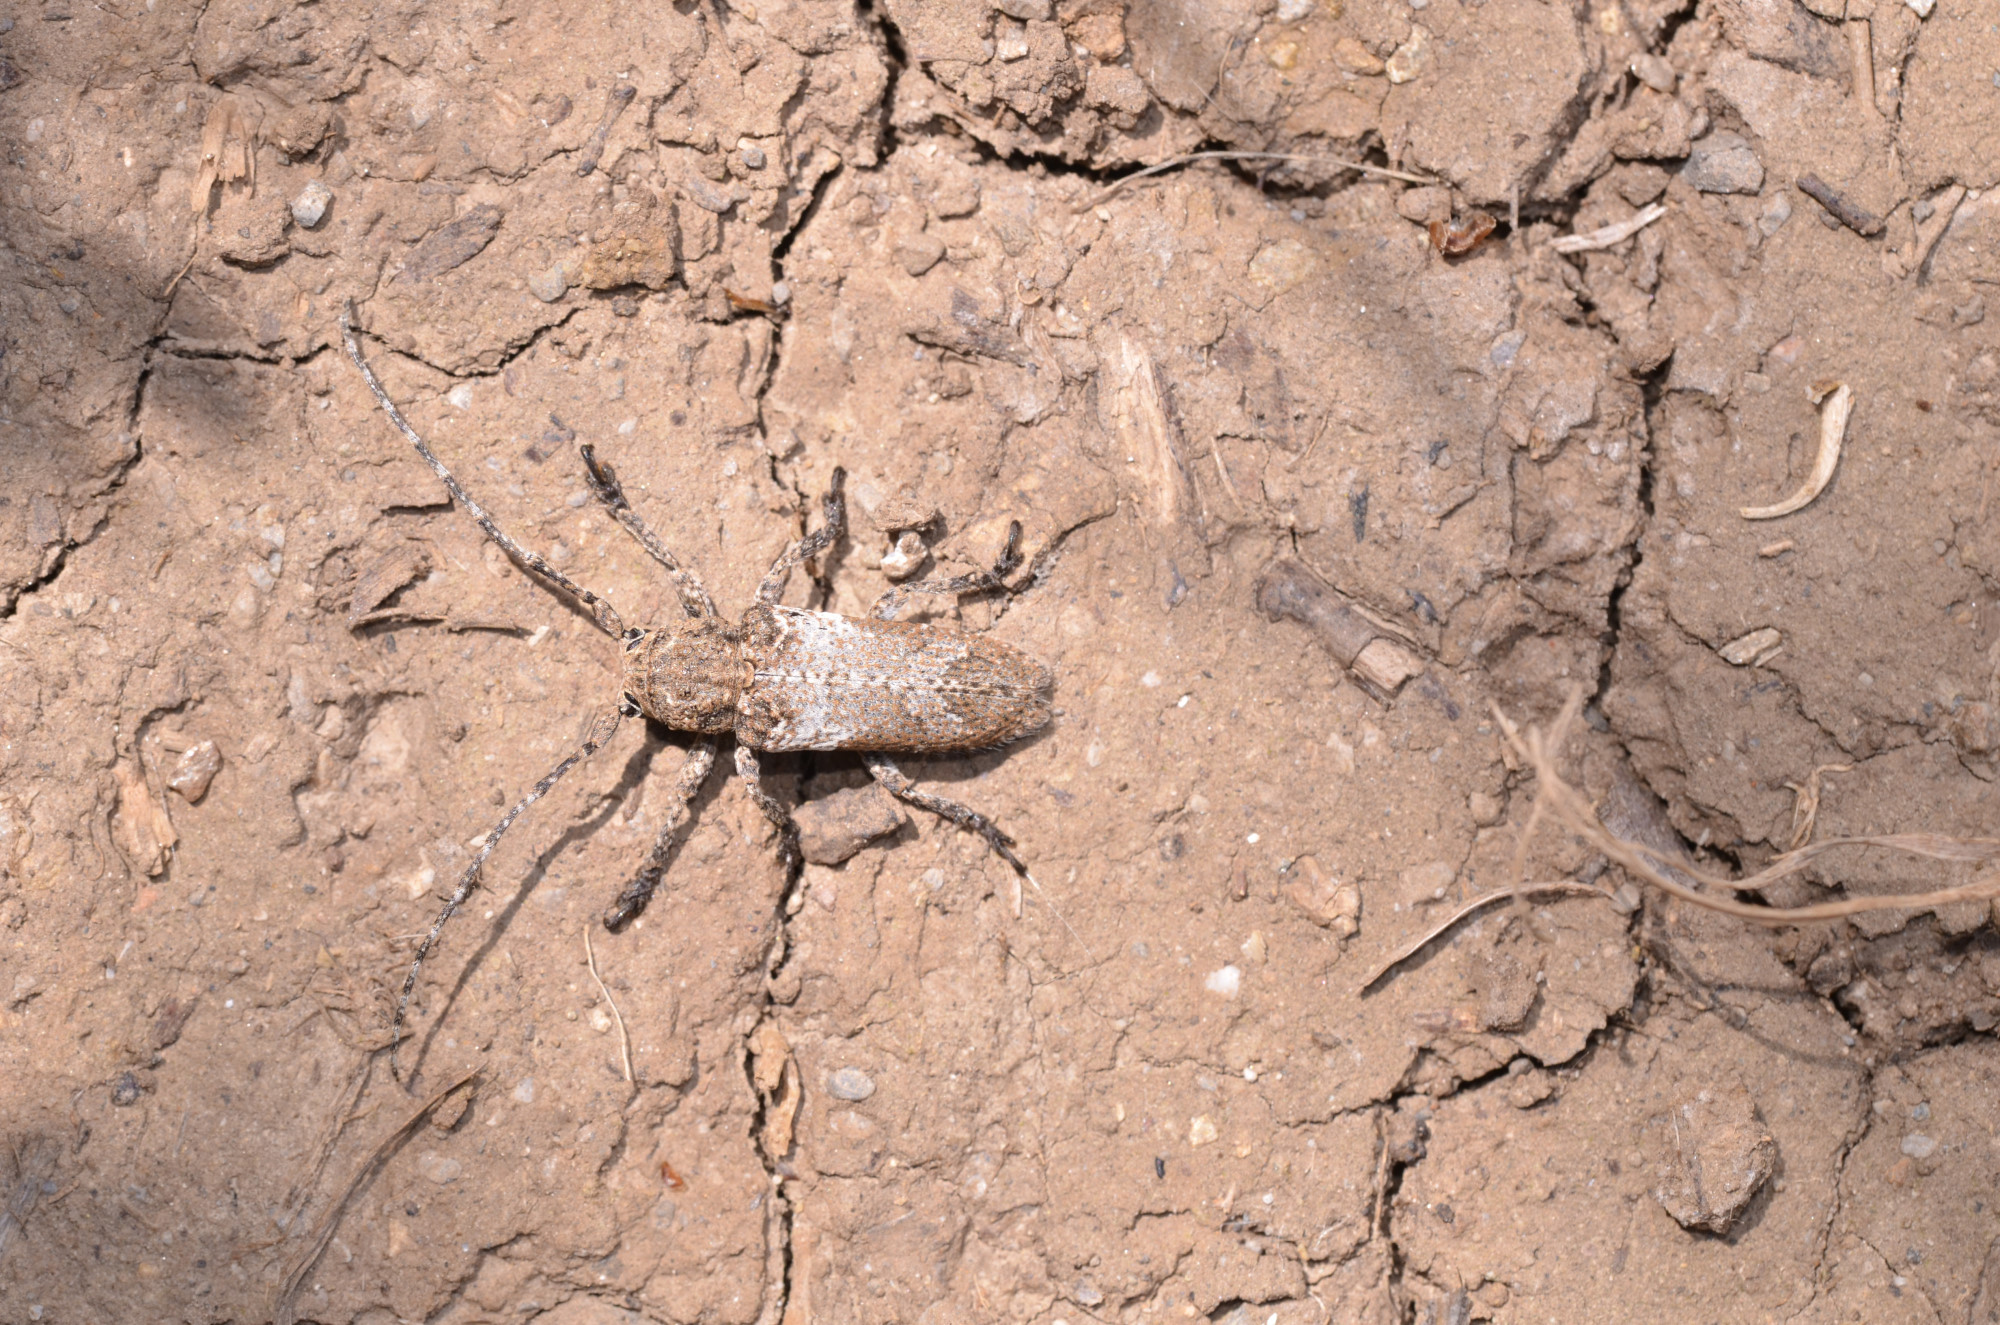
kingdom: Animalia
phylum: Arthropoda
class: Insecta
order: Coleoptera
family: Cerambycidae
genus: Niphona
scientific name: Niphona picticornis
